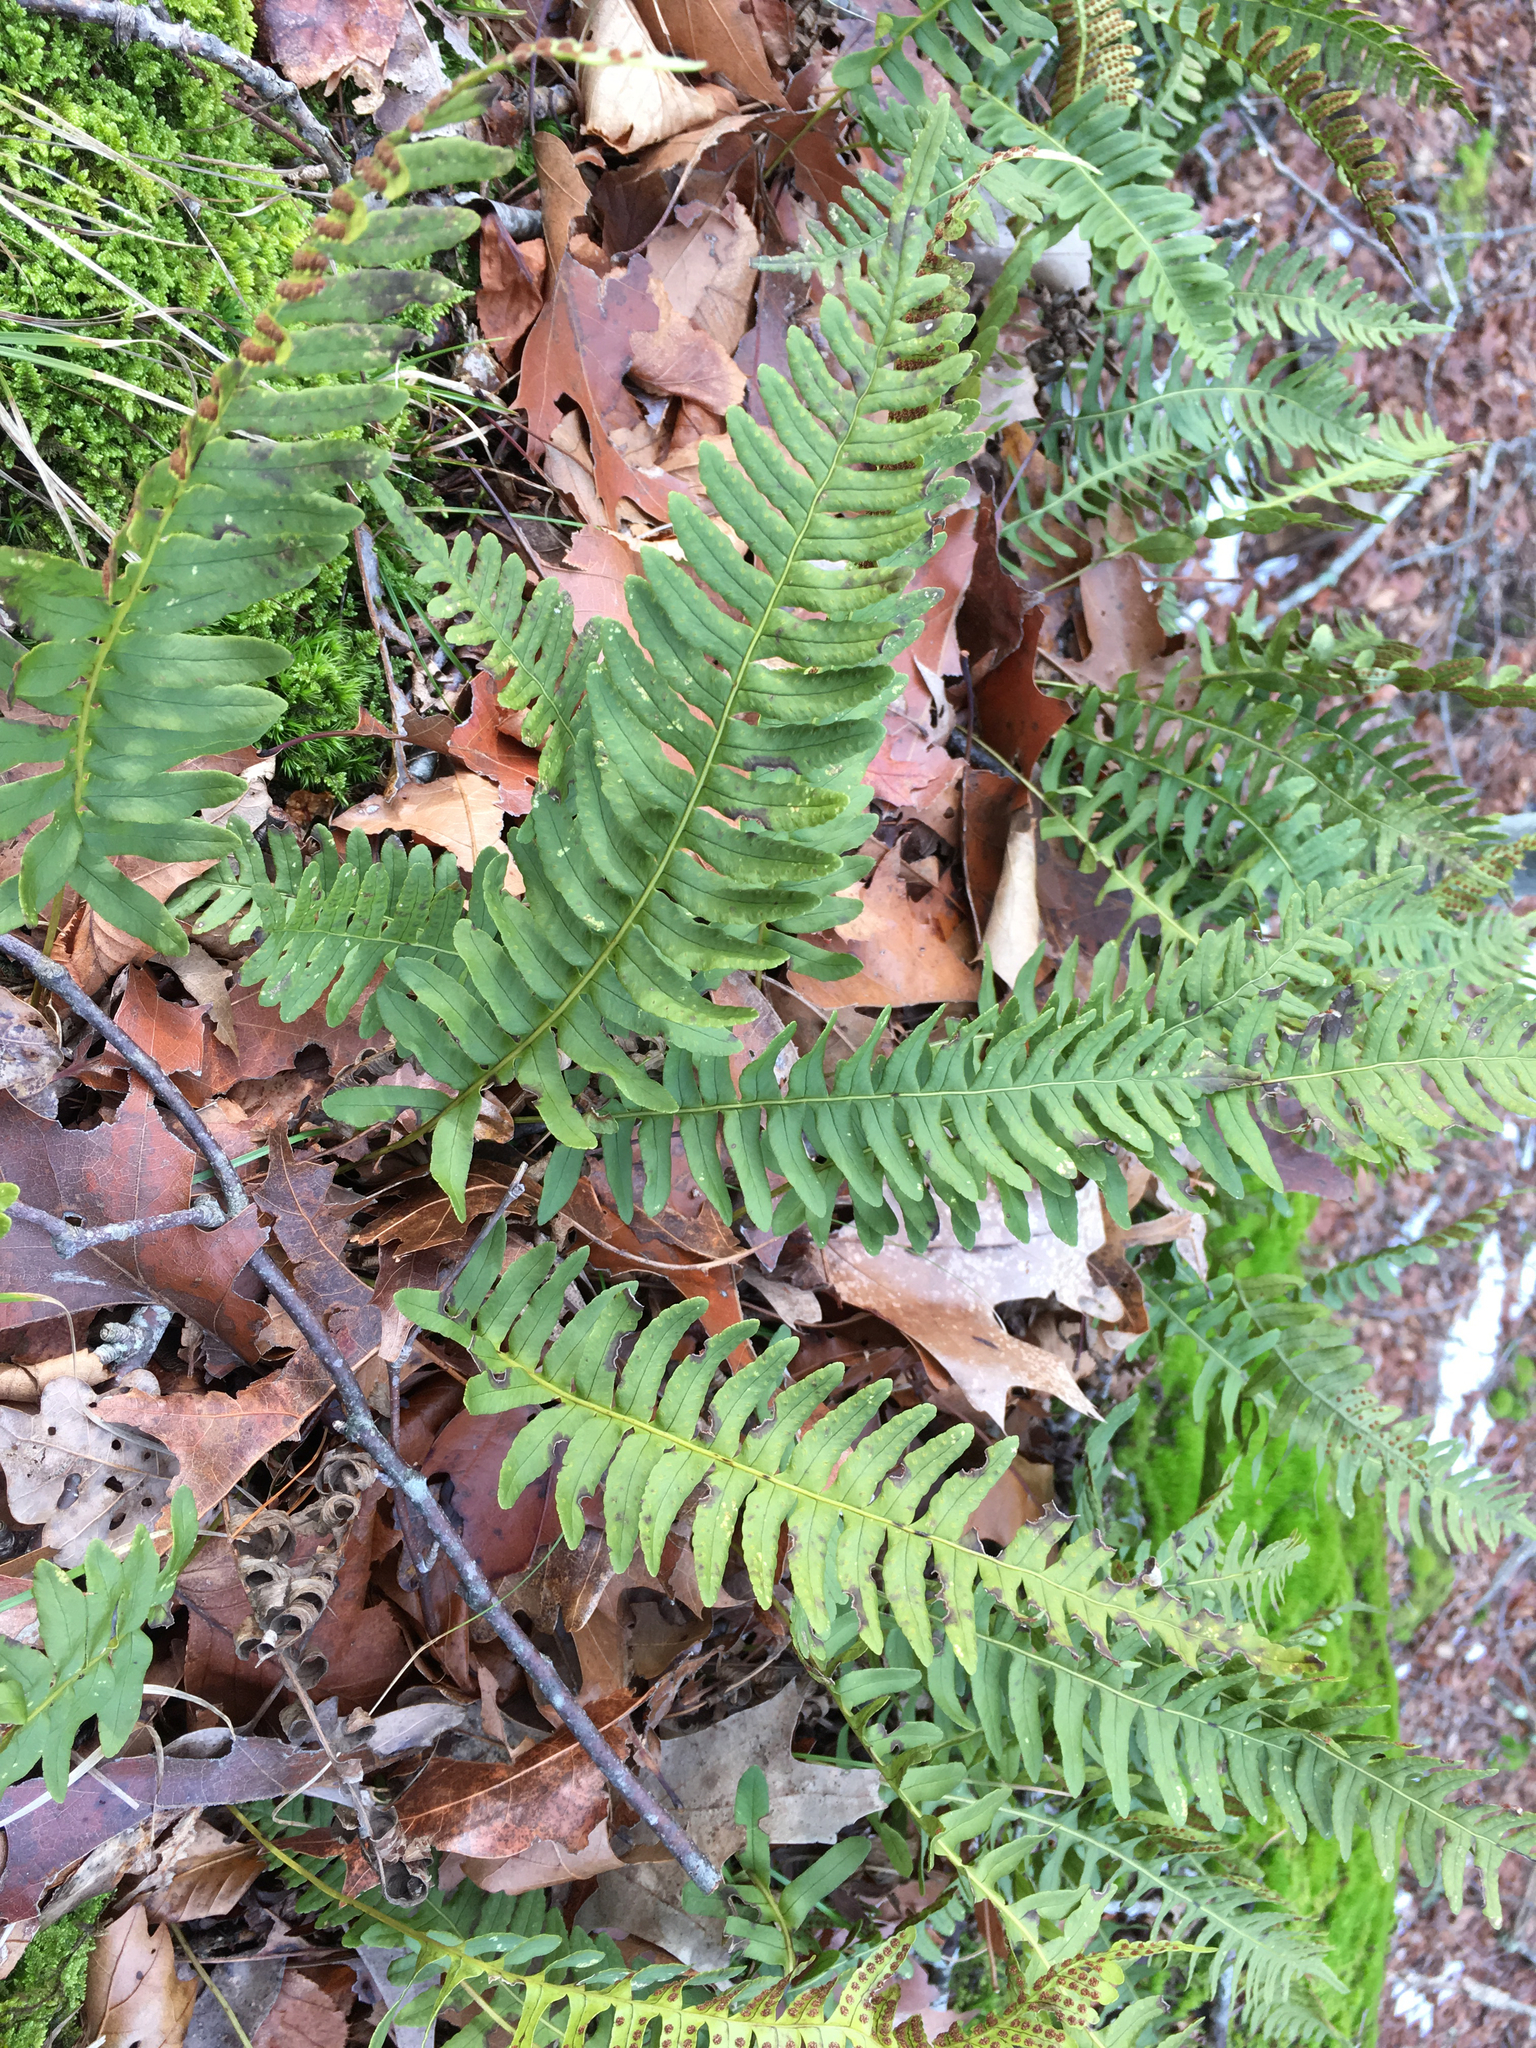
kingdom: Plantae
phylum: Tracheophyta
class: Polypodiopsida
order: Polypodiales
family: Polypodiaceae
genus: Polypodium
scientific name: Polypodium virginianum
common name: American wall fern
